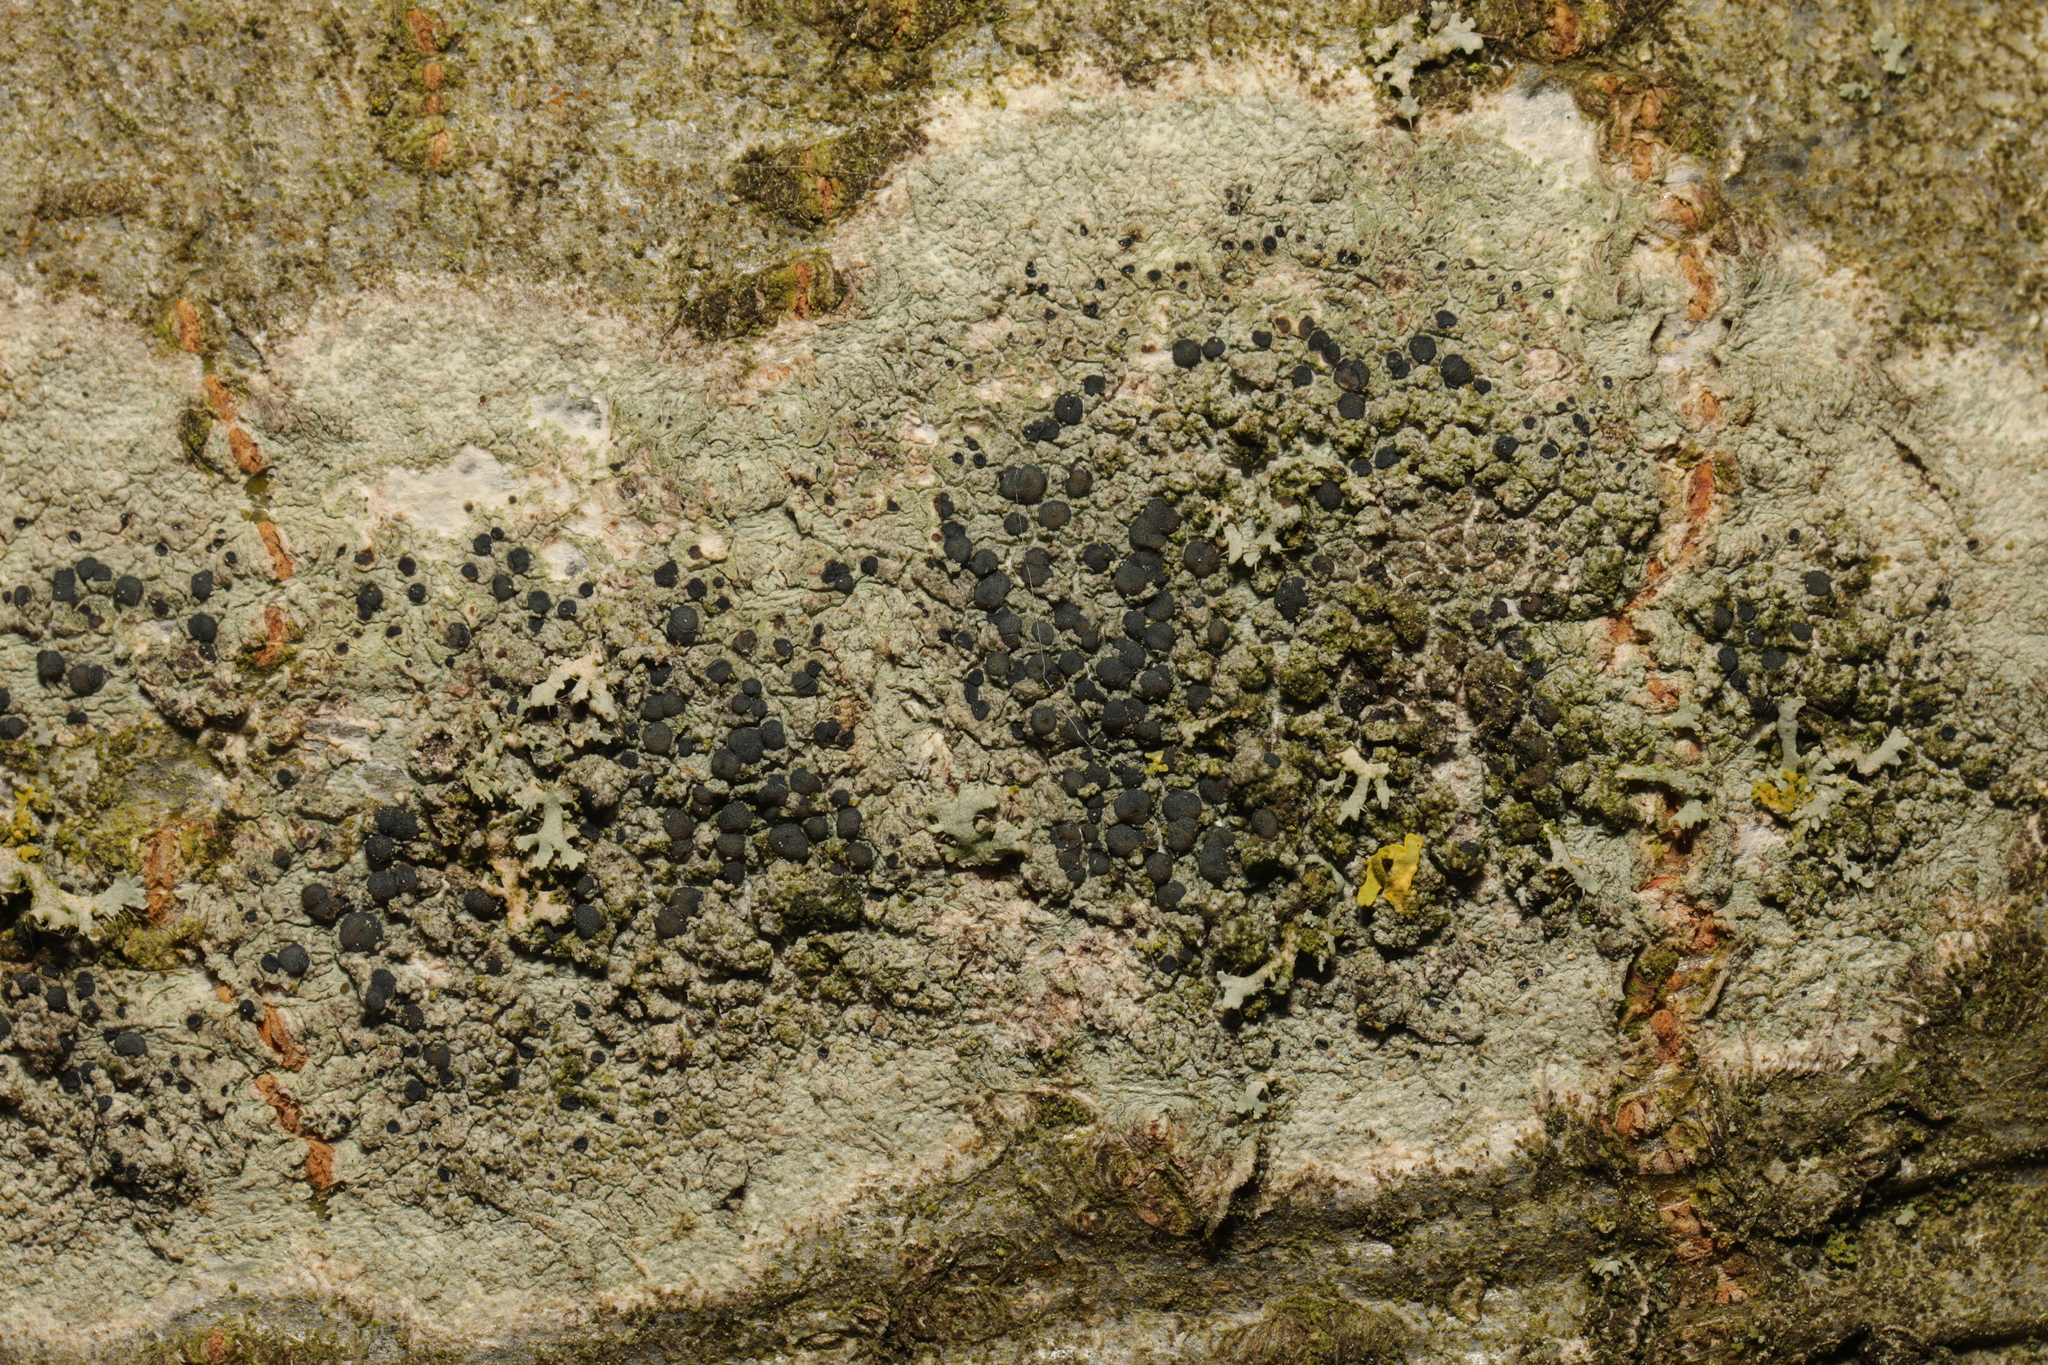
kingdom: Fungi
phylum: Ascomycota
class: Lecanoromycetes
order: Lecanorales
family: Lecanoraceae
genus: Lecidella
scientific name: Lecidella elaeochroma
